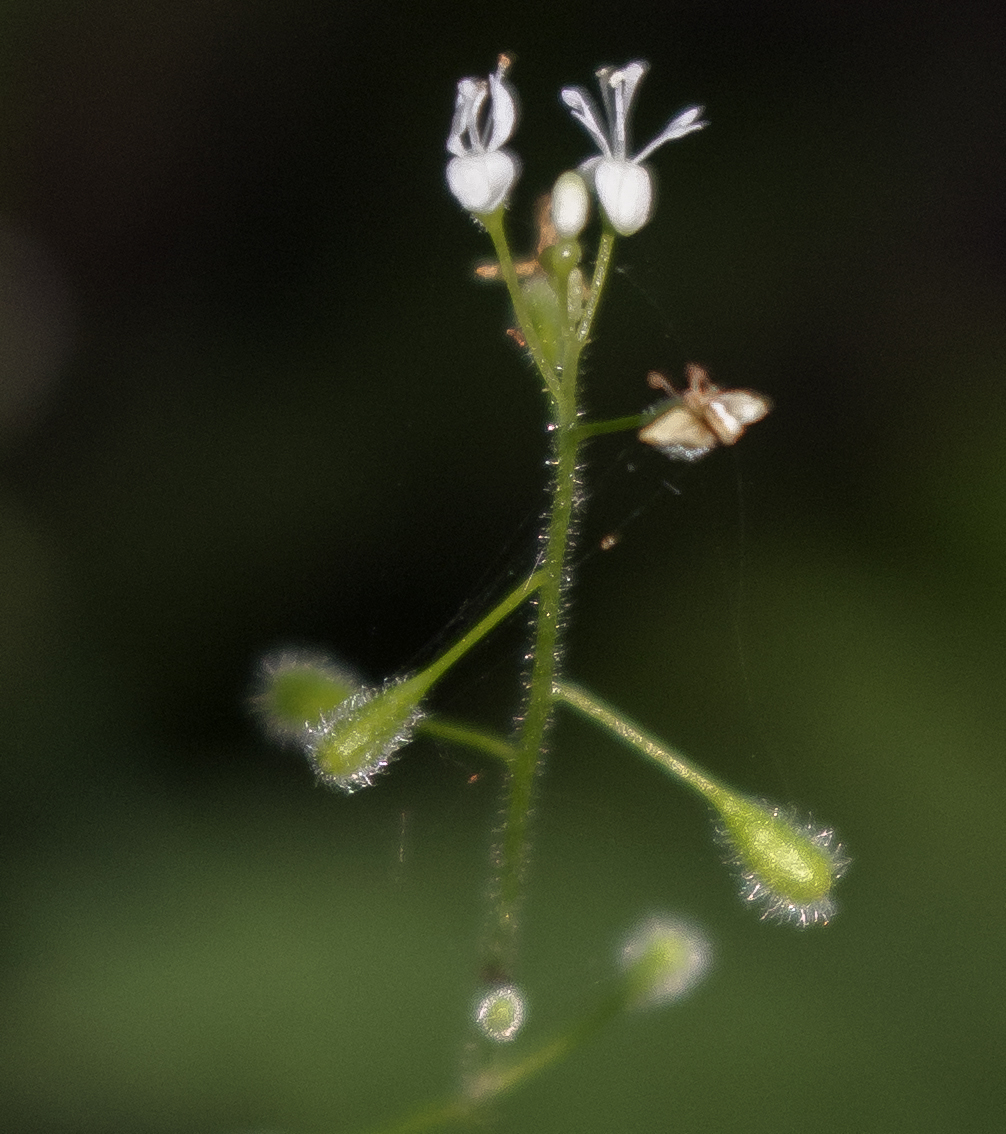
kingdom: Plantae
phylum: Tracheophyta
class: Magnoliopsida
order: Myrtales
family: Onagraceae
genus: Circaea
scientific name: Circaea alpina
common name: Alpine enchanter's-nightshade
